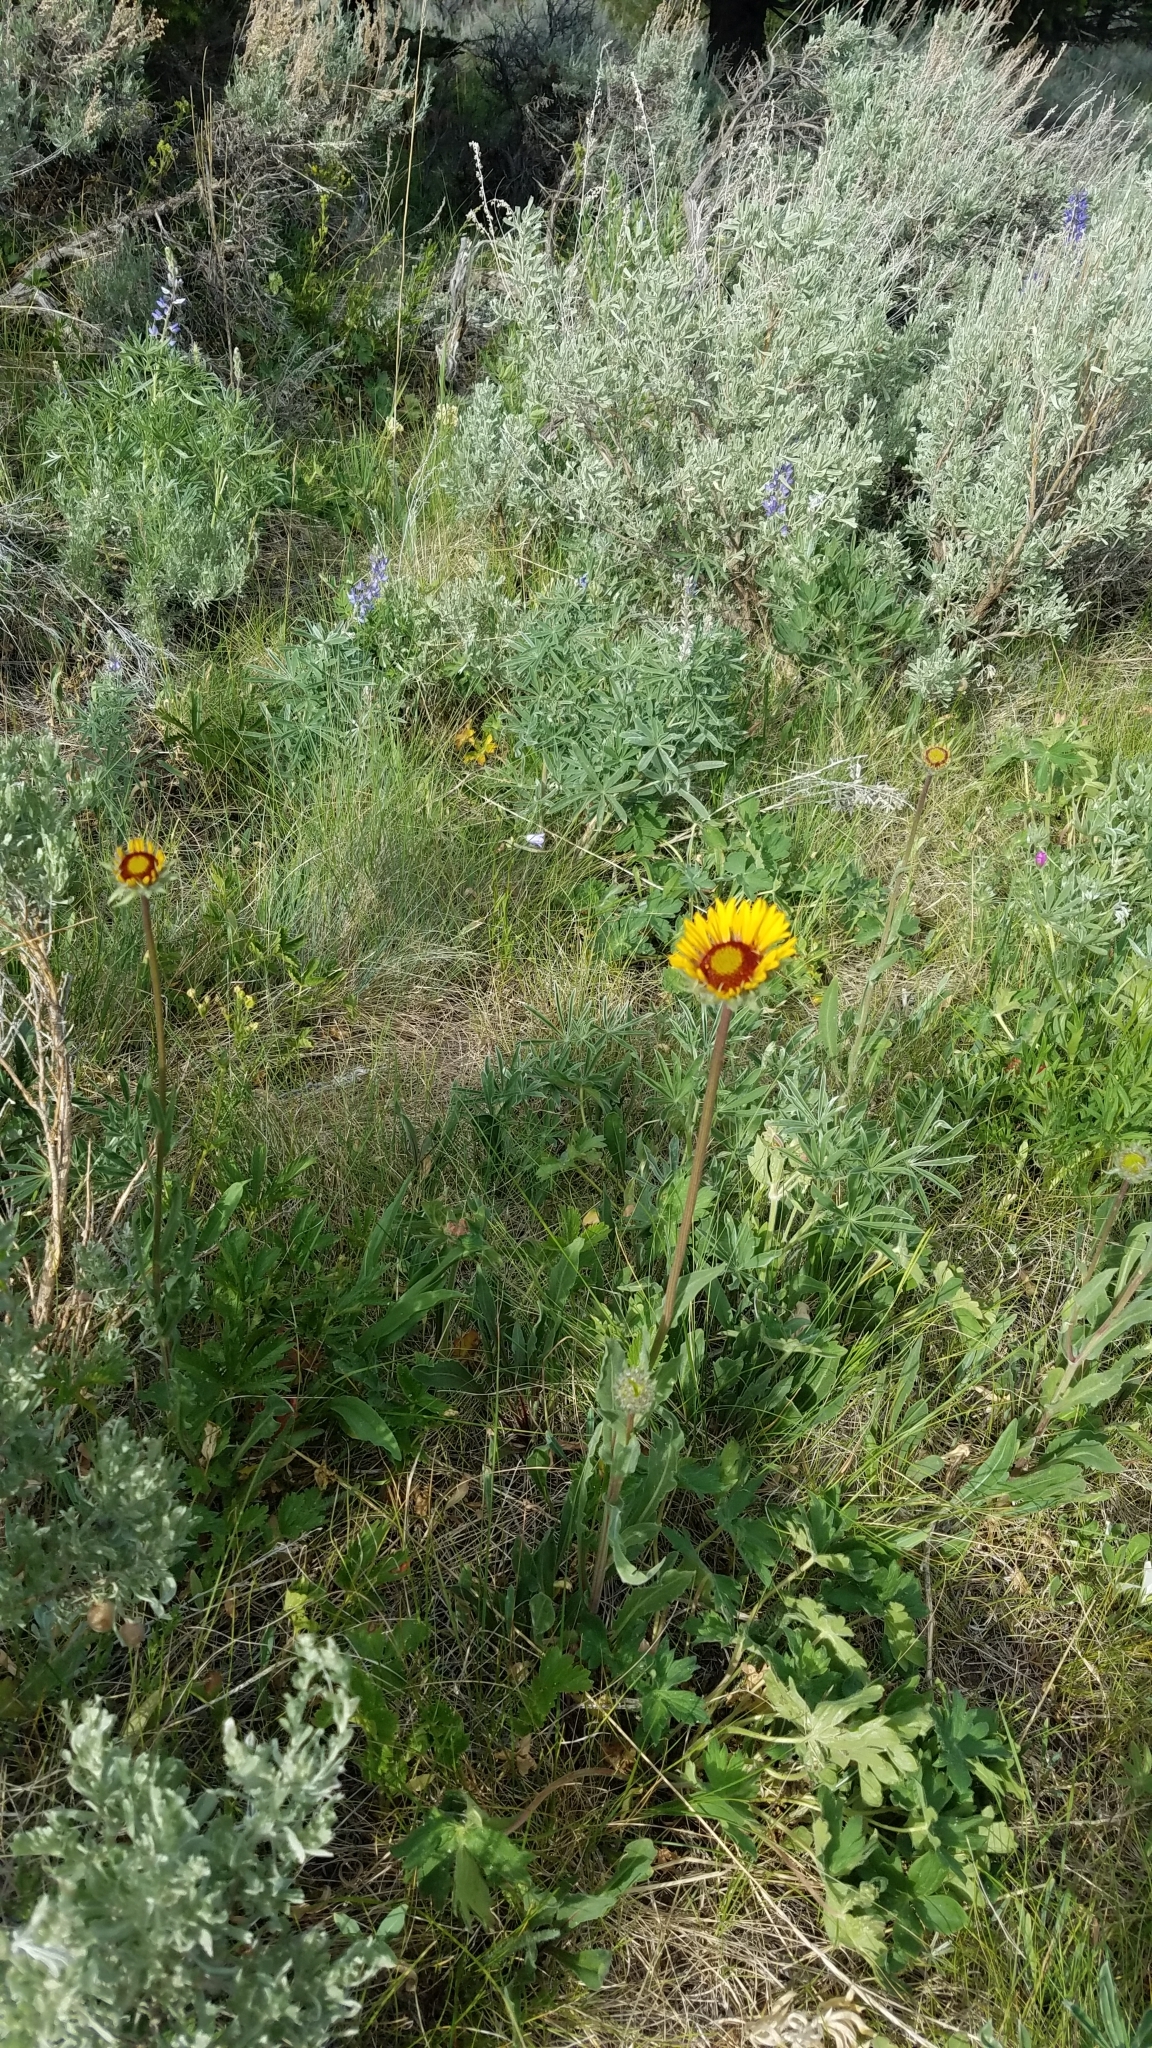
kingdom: Plantae
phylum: Tracheophyta
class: Magnoliopsida
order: Asterales
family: Asteraceae
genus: Gaillardia
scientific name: Gaillardia aristata
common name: Blanket-flower
